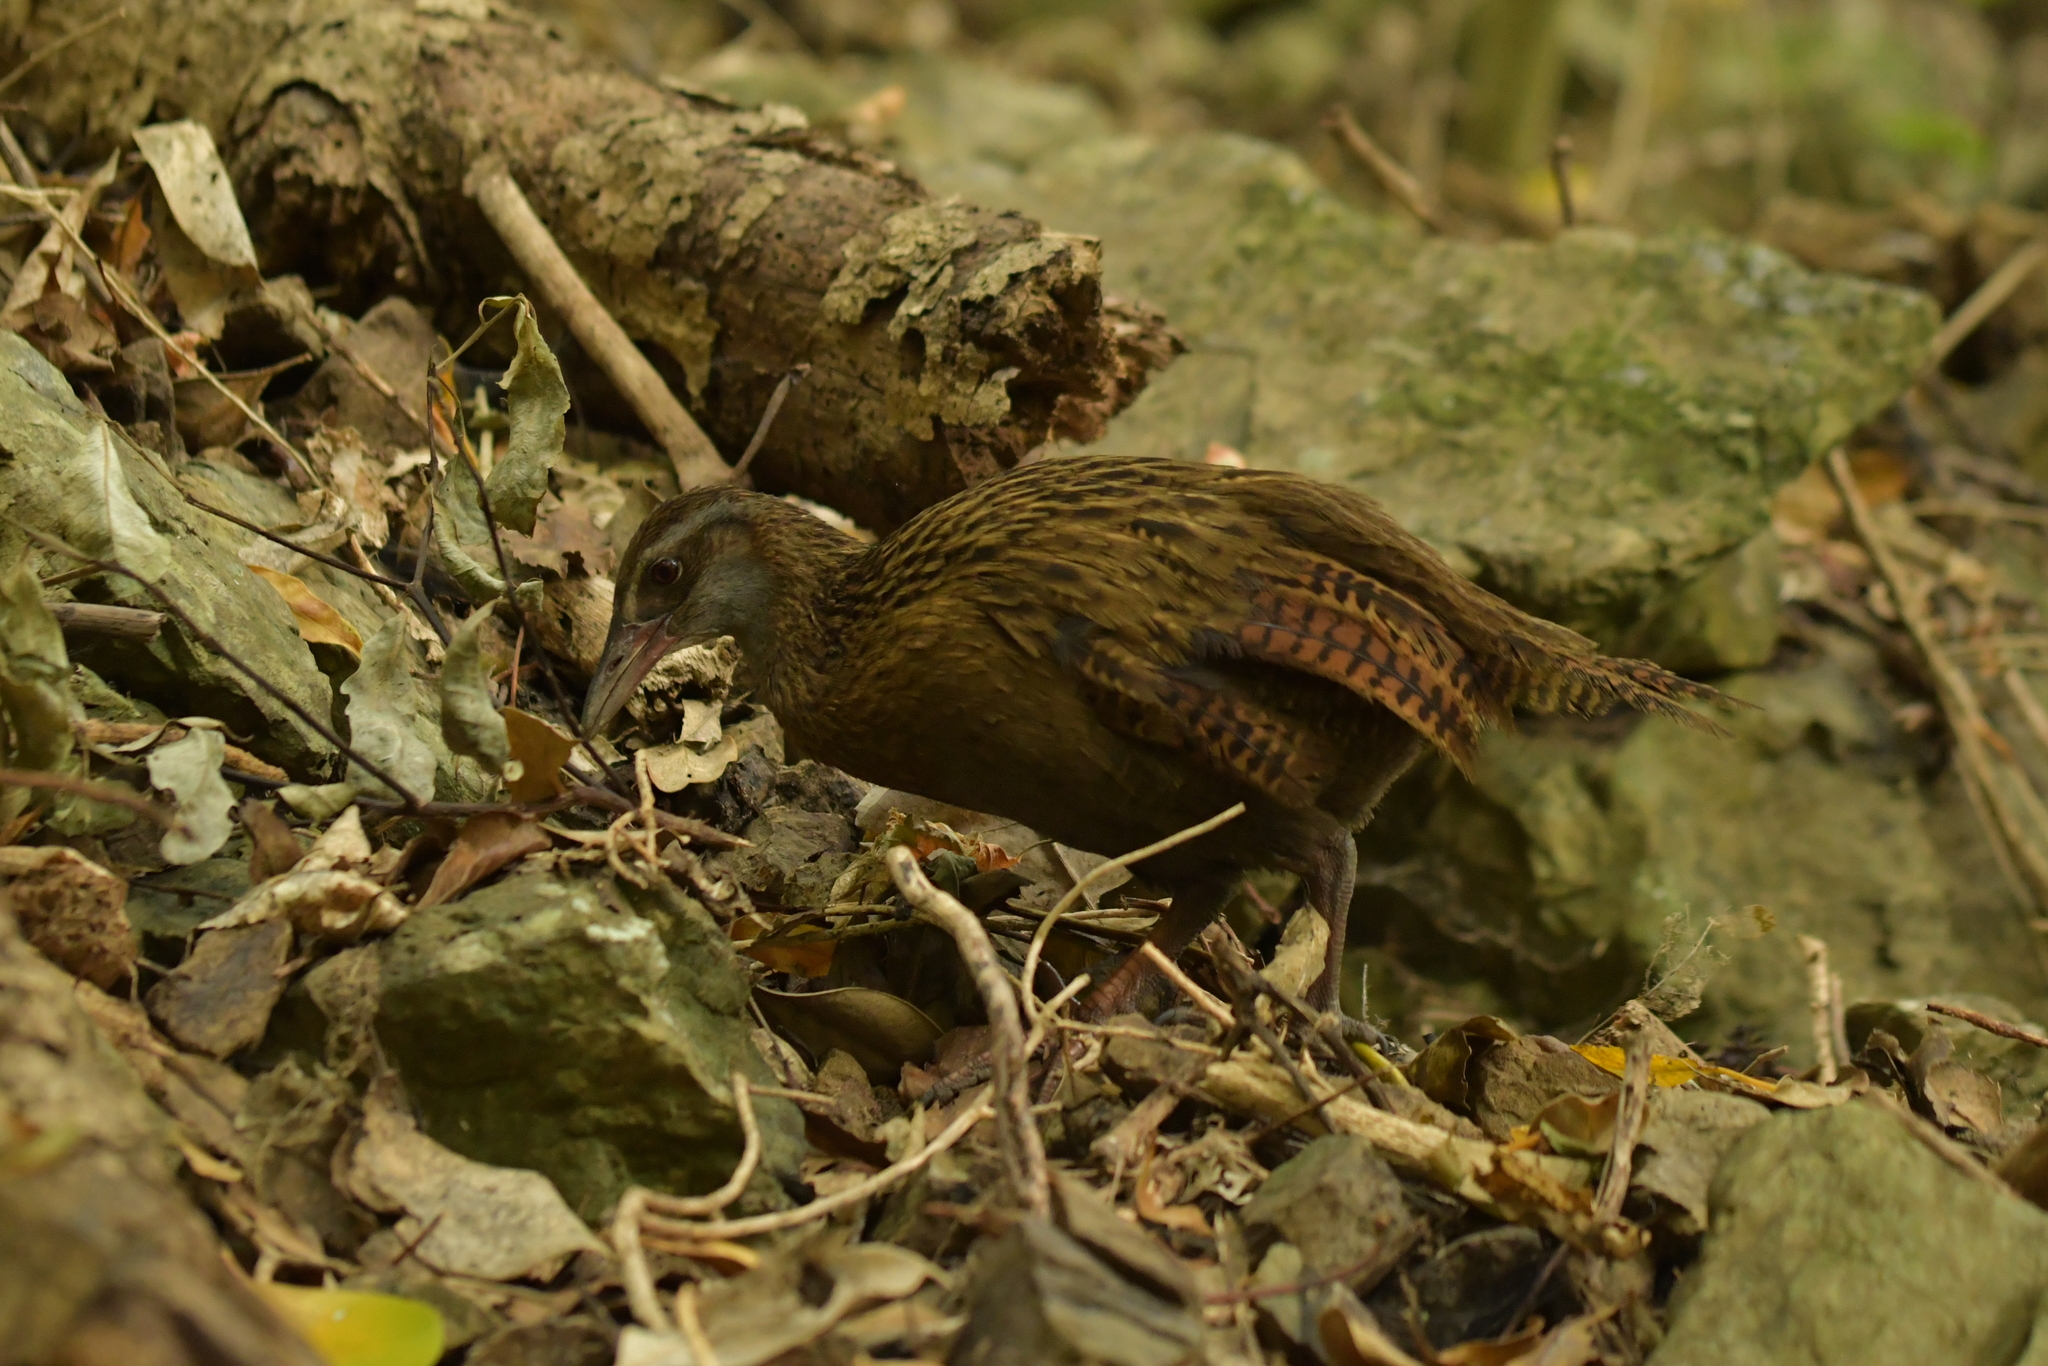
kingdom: Animalia
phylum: Chordata
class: Aves
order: Gruiformes
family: Rallidae
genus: Gallirallus
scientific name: Gallirallus australis
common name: Weka
